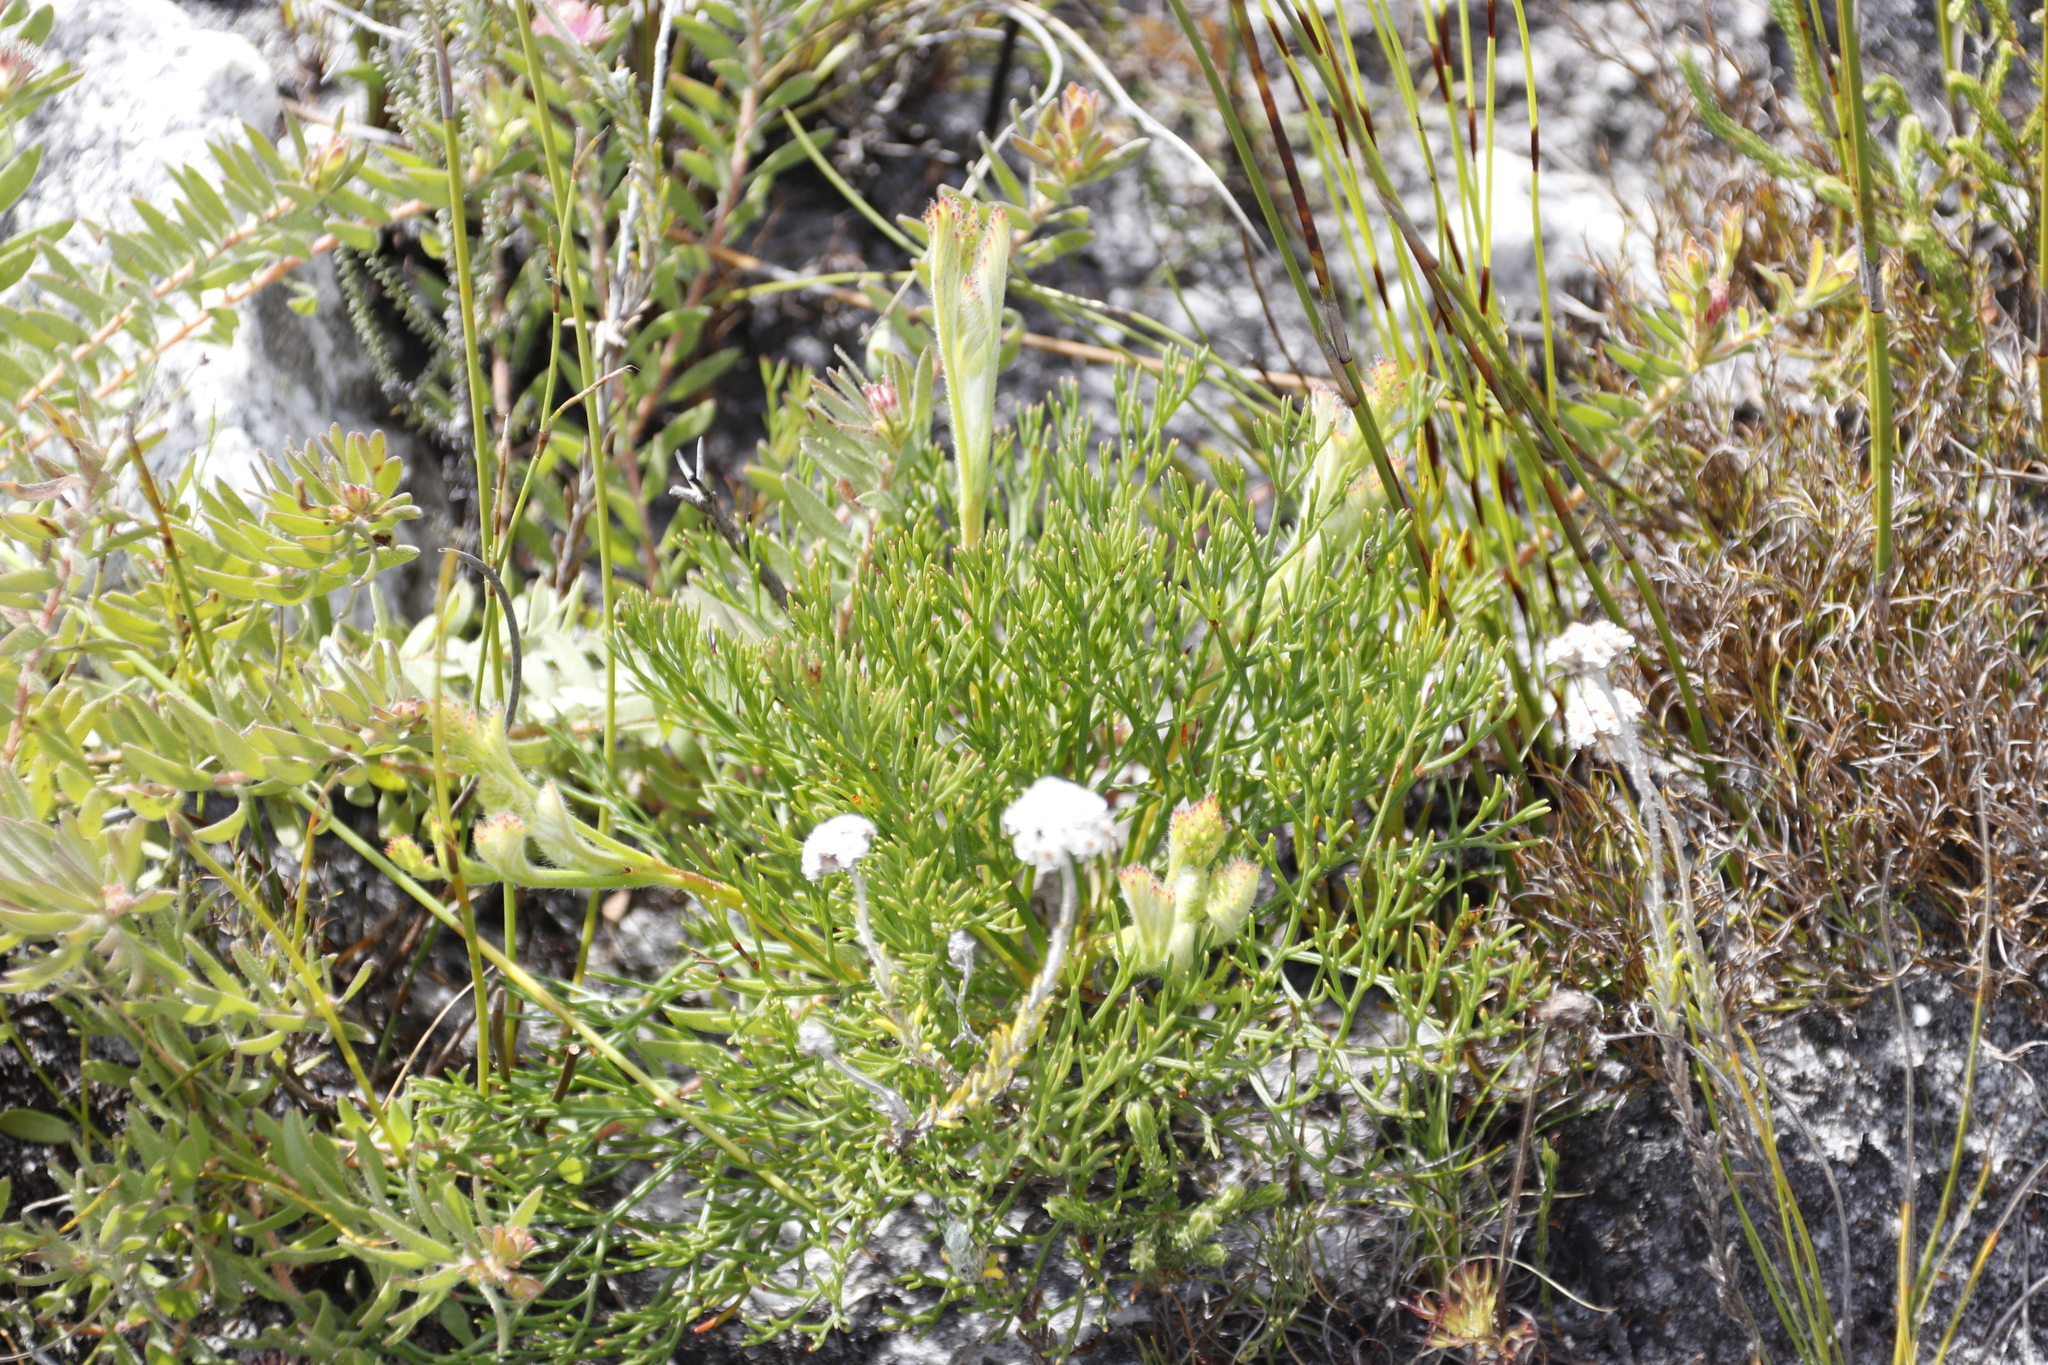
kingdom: Plantae
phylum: Tracheophyta
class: Magnoliopsida
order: Proteales
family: Proteaceae
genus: Serruria
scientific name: Serruria elongata
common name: Long-stalk spiderhead
